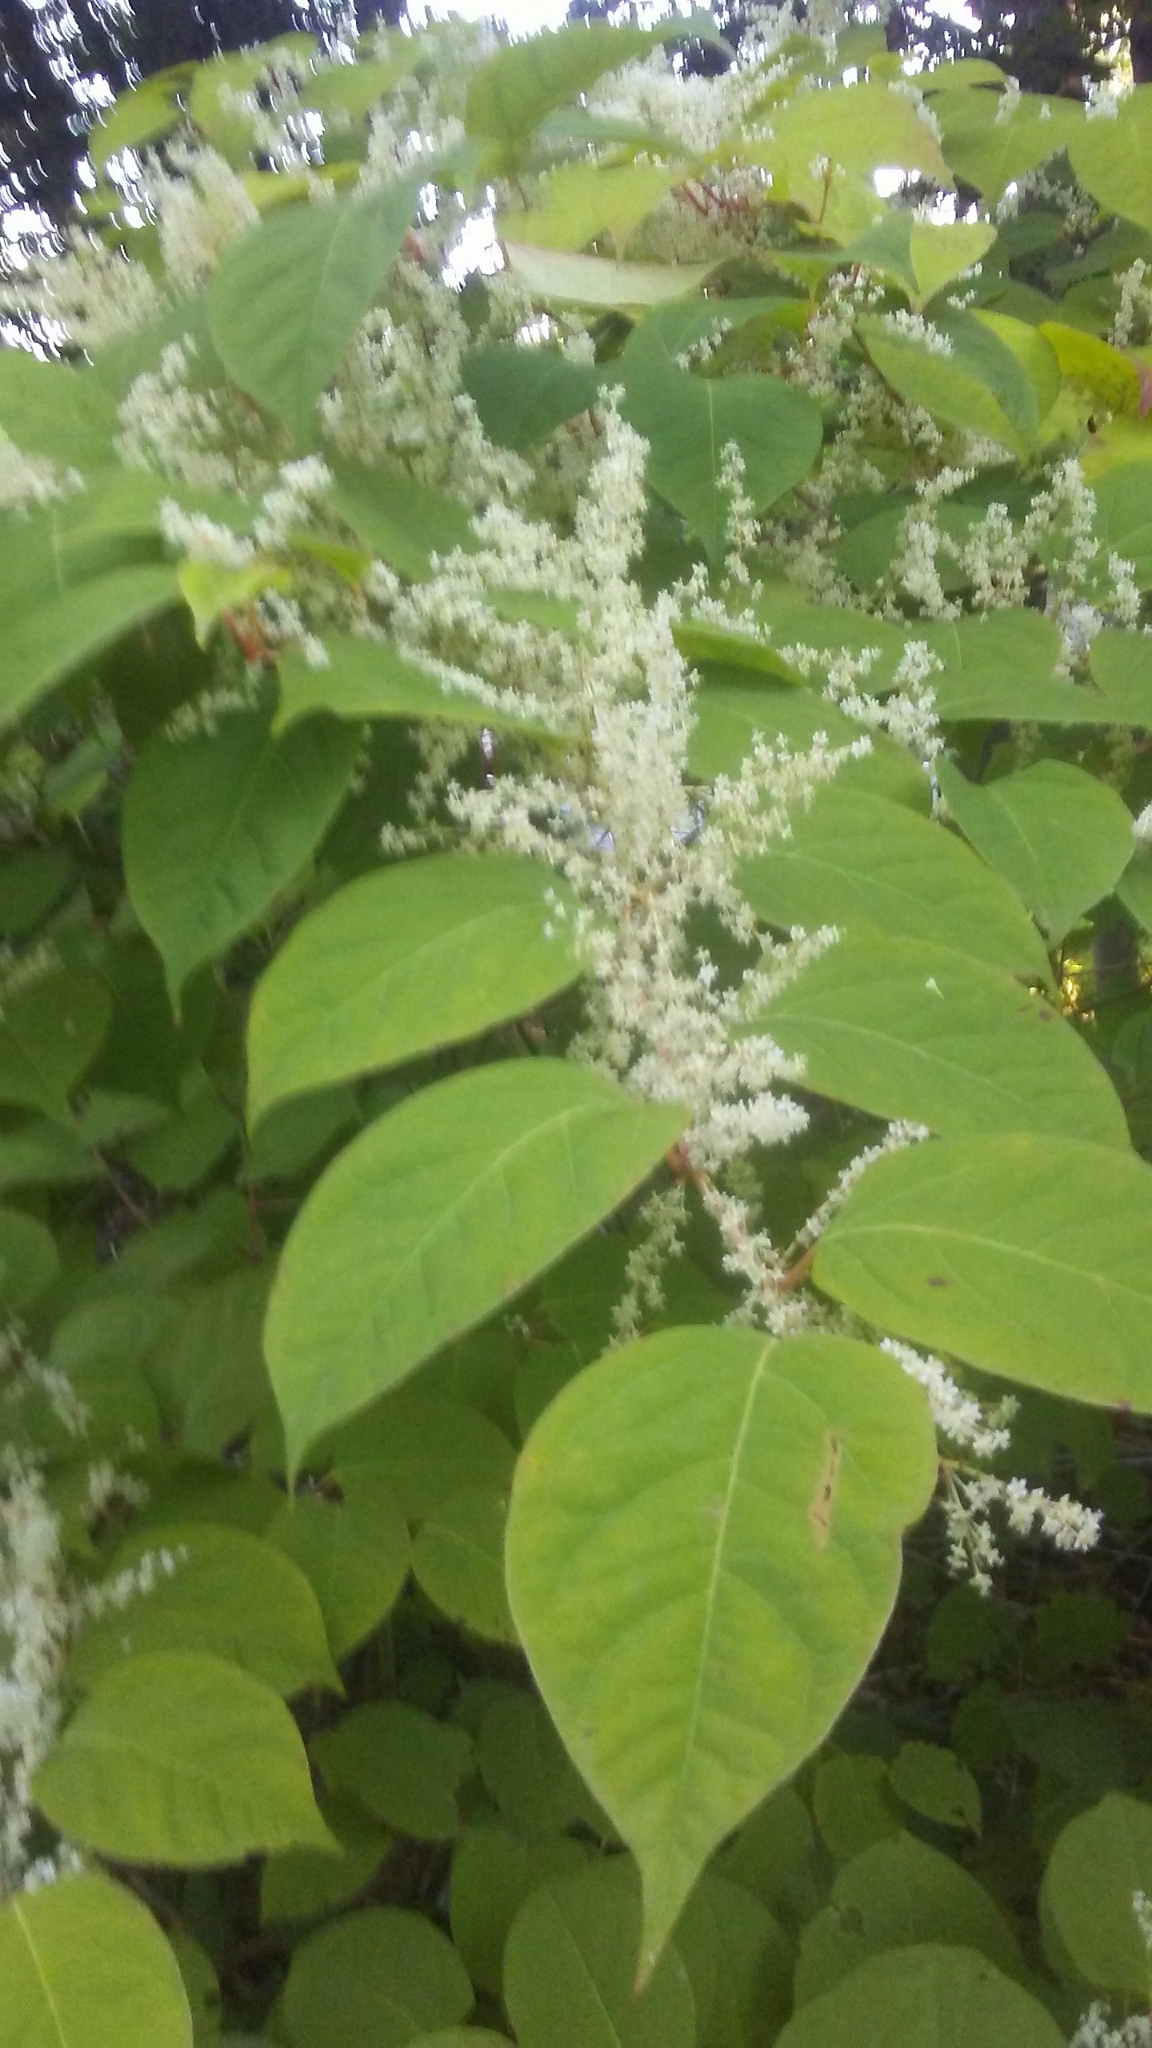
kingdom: Plantae
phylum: Tracheophyta
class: Magnoliopsida
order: Caryophyllales
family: Polygonaceae
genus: Reynoutria
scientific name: Reynoutria japonica
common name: Japanese knotweed
